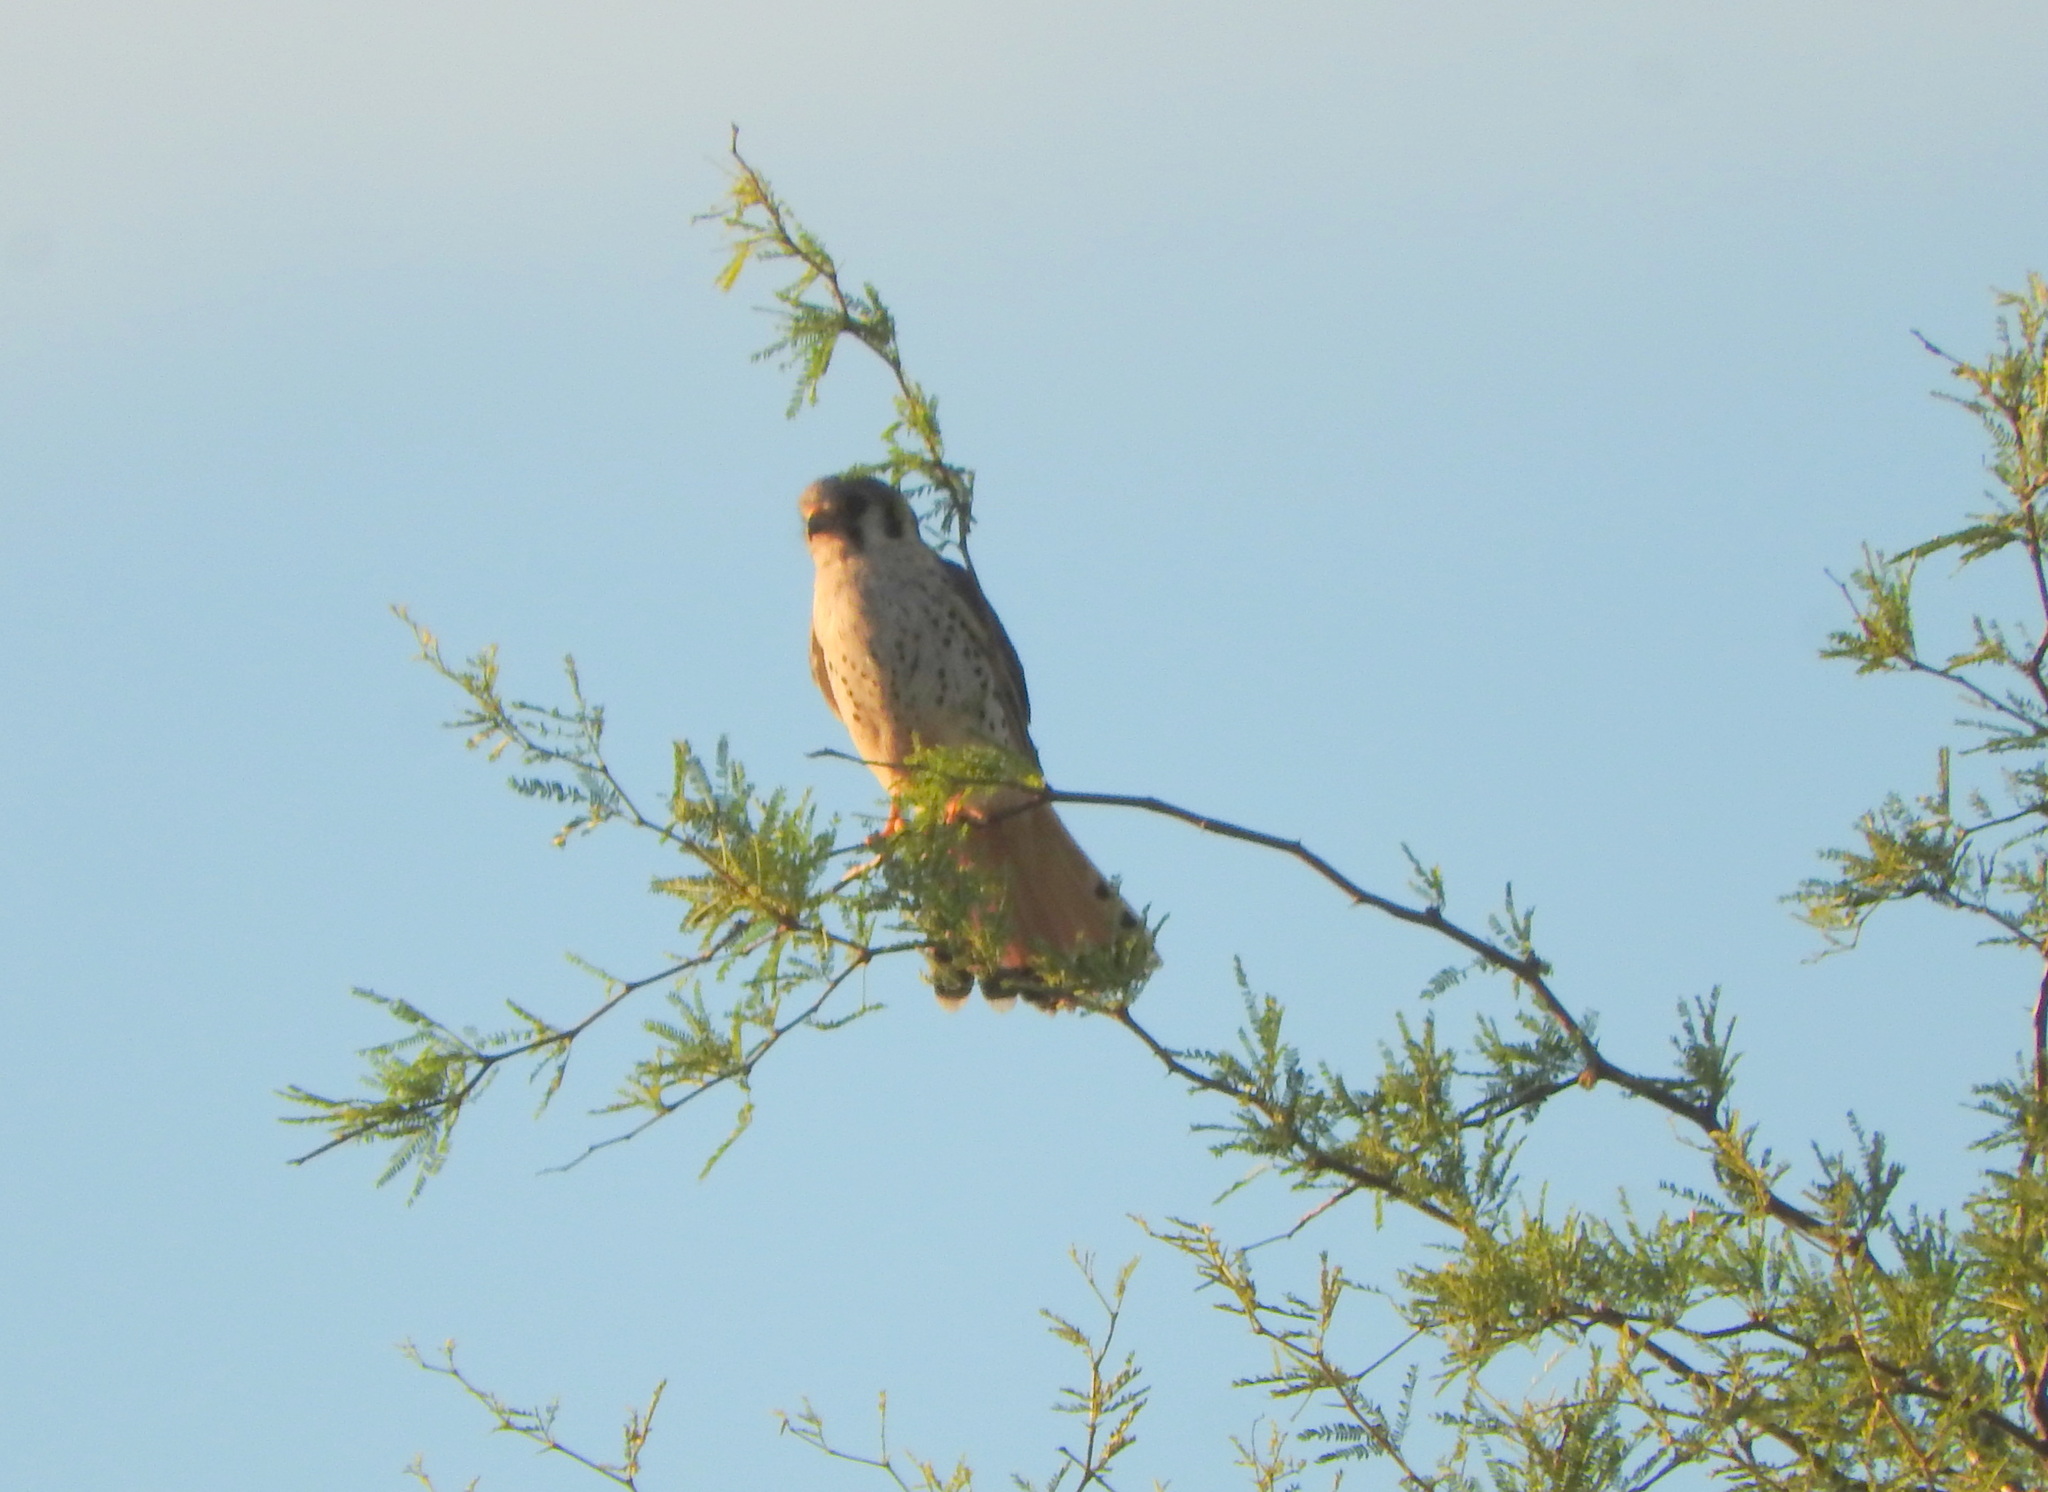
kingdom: Animalia
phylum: Chordata
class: Aves
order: Falconiformes
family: Falconidae
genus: Falco
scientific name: Falco sparverius
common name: American kestrel
